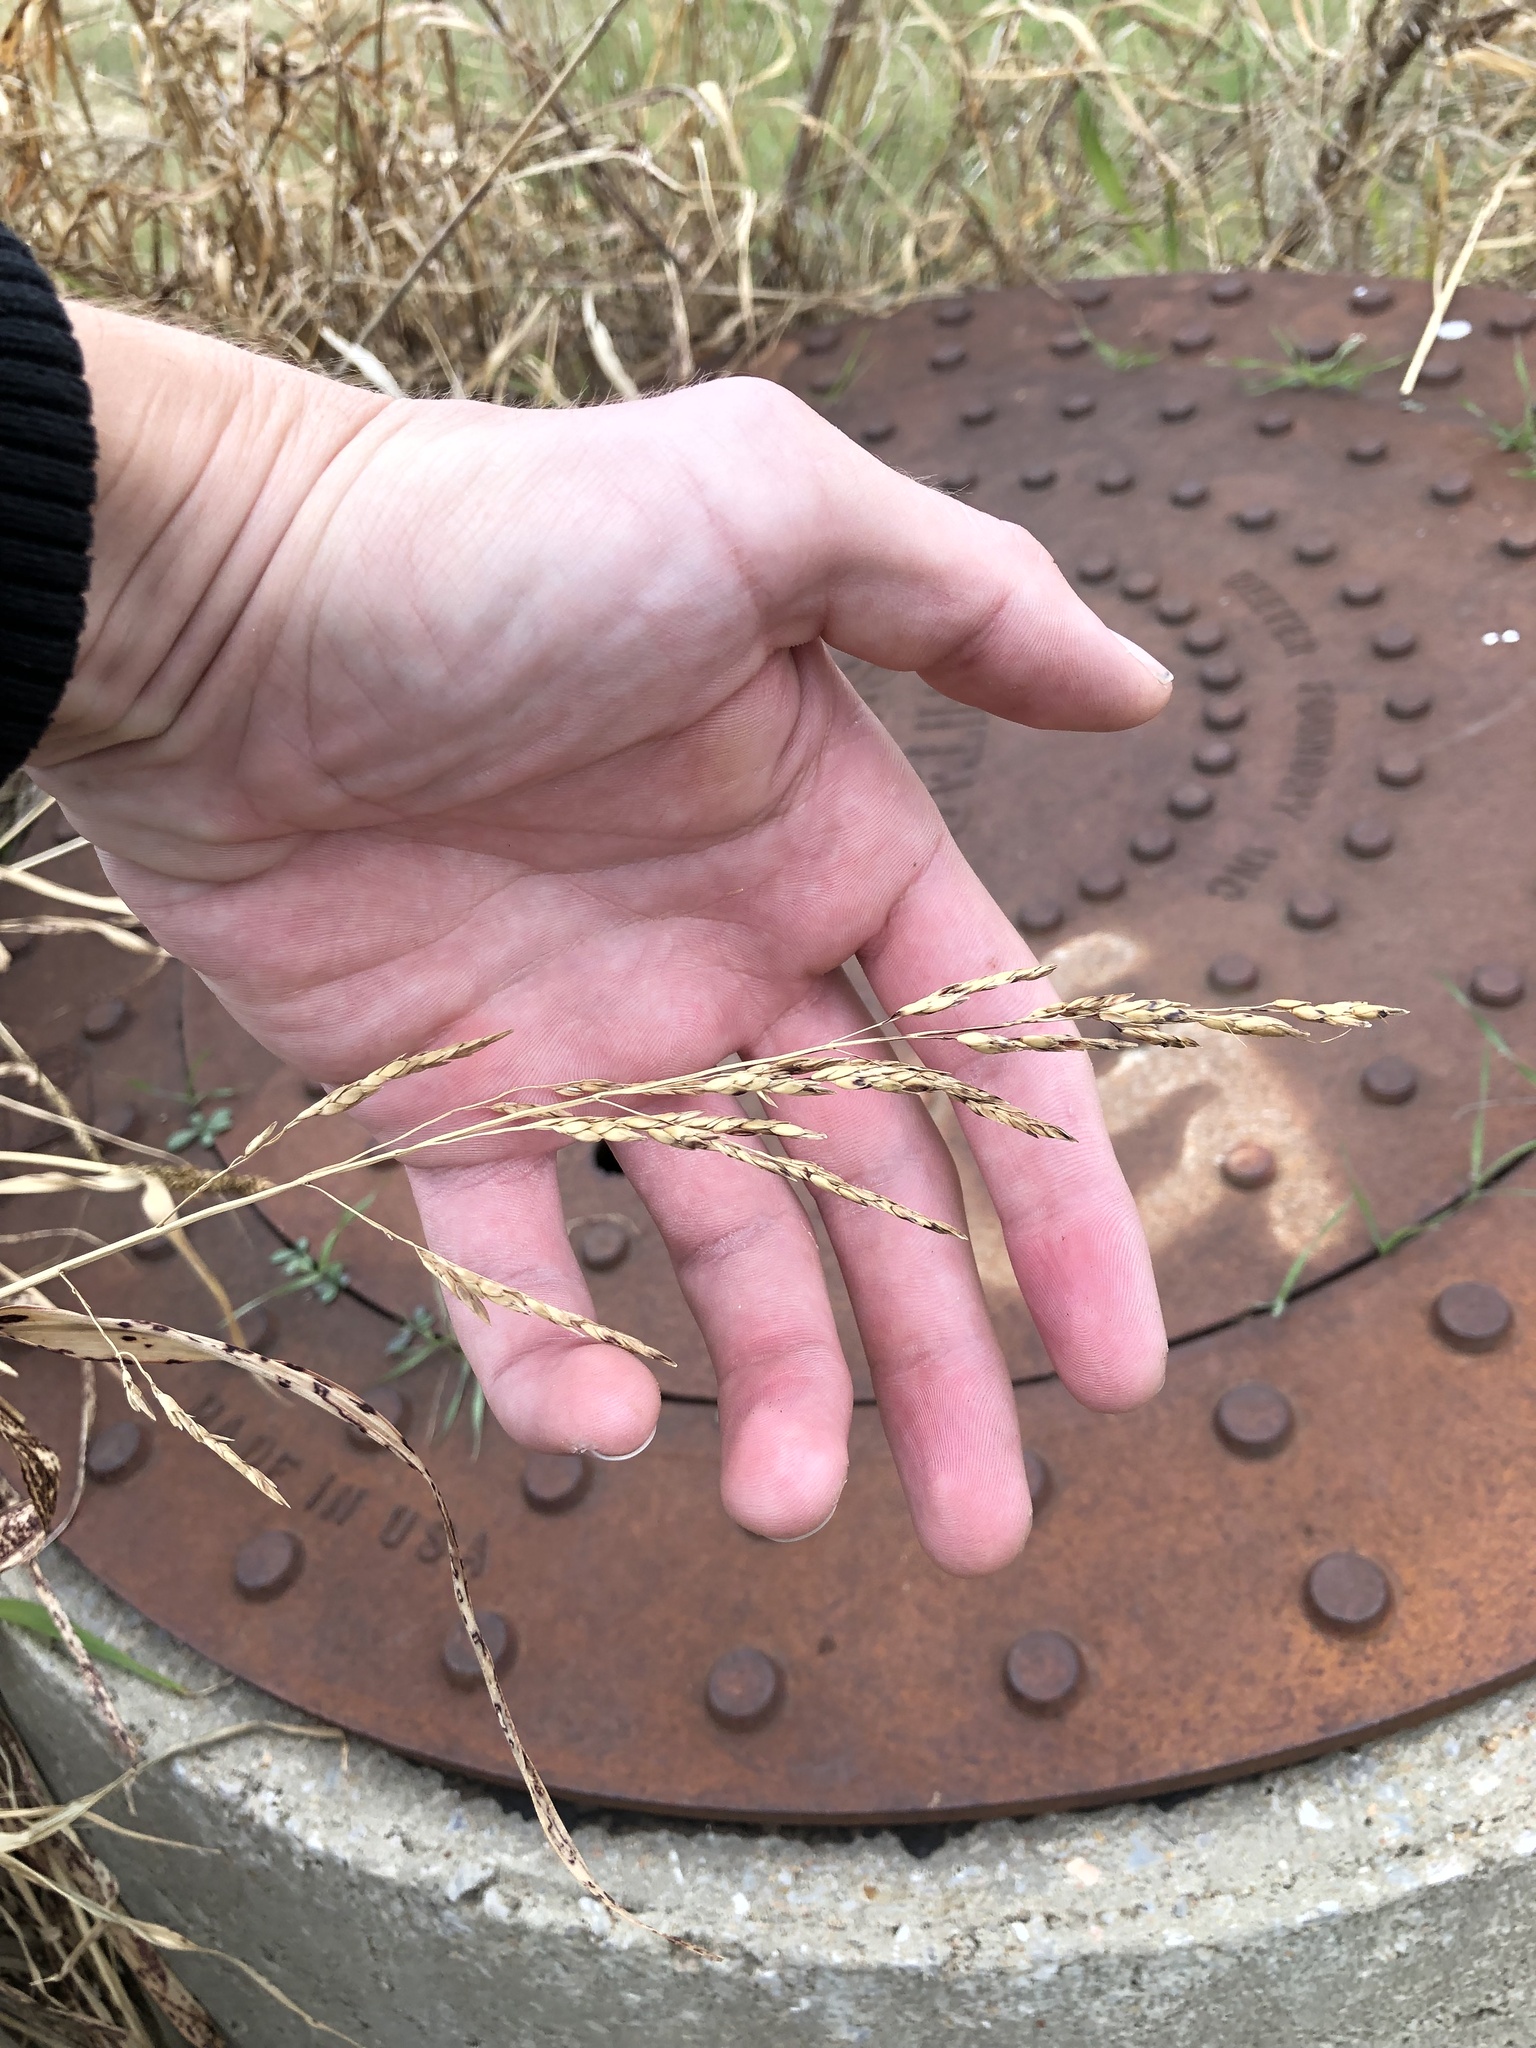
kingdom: Plantae
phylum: Tracheophyta
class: Liliopsida
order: Poales
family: Poaceae
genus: Sorghum
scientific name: Sorghum halepense
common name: Johnson-grass
